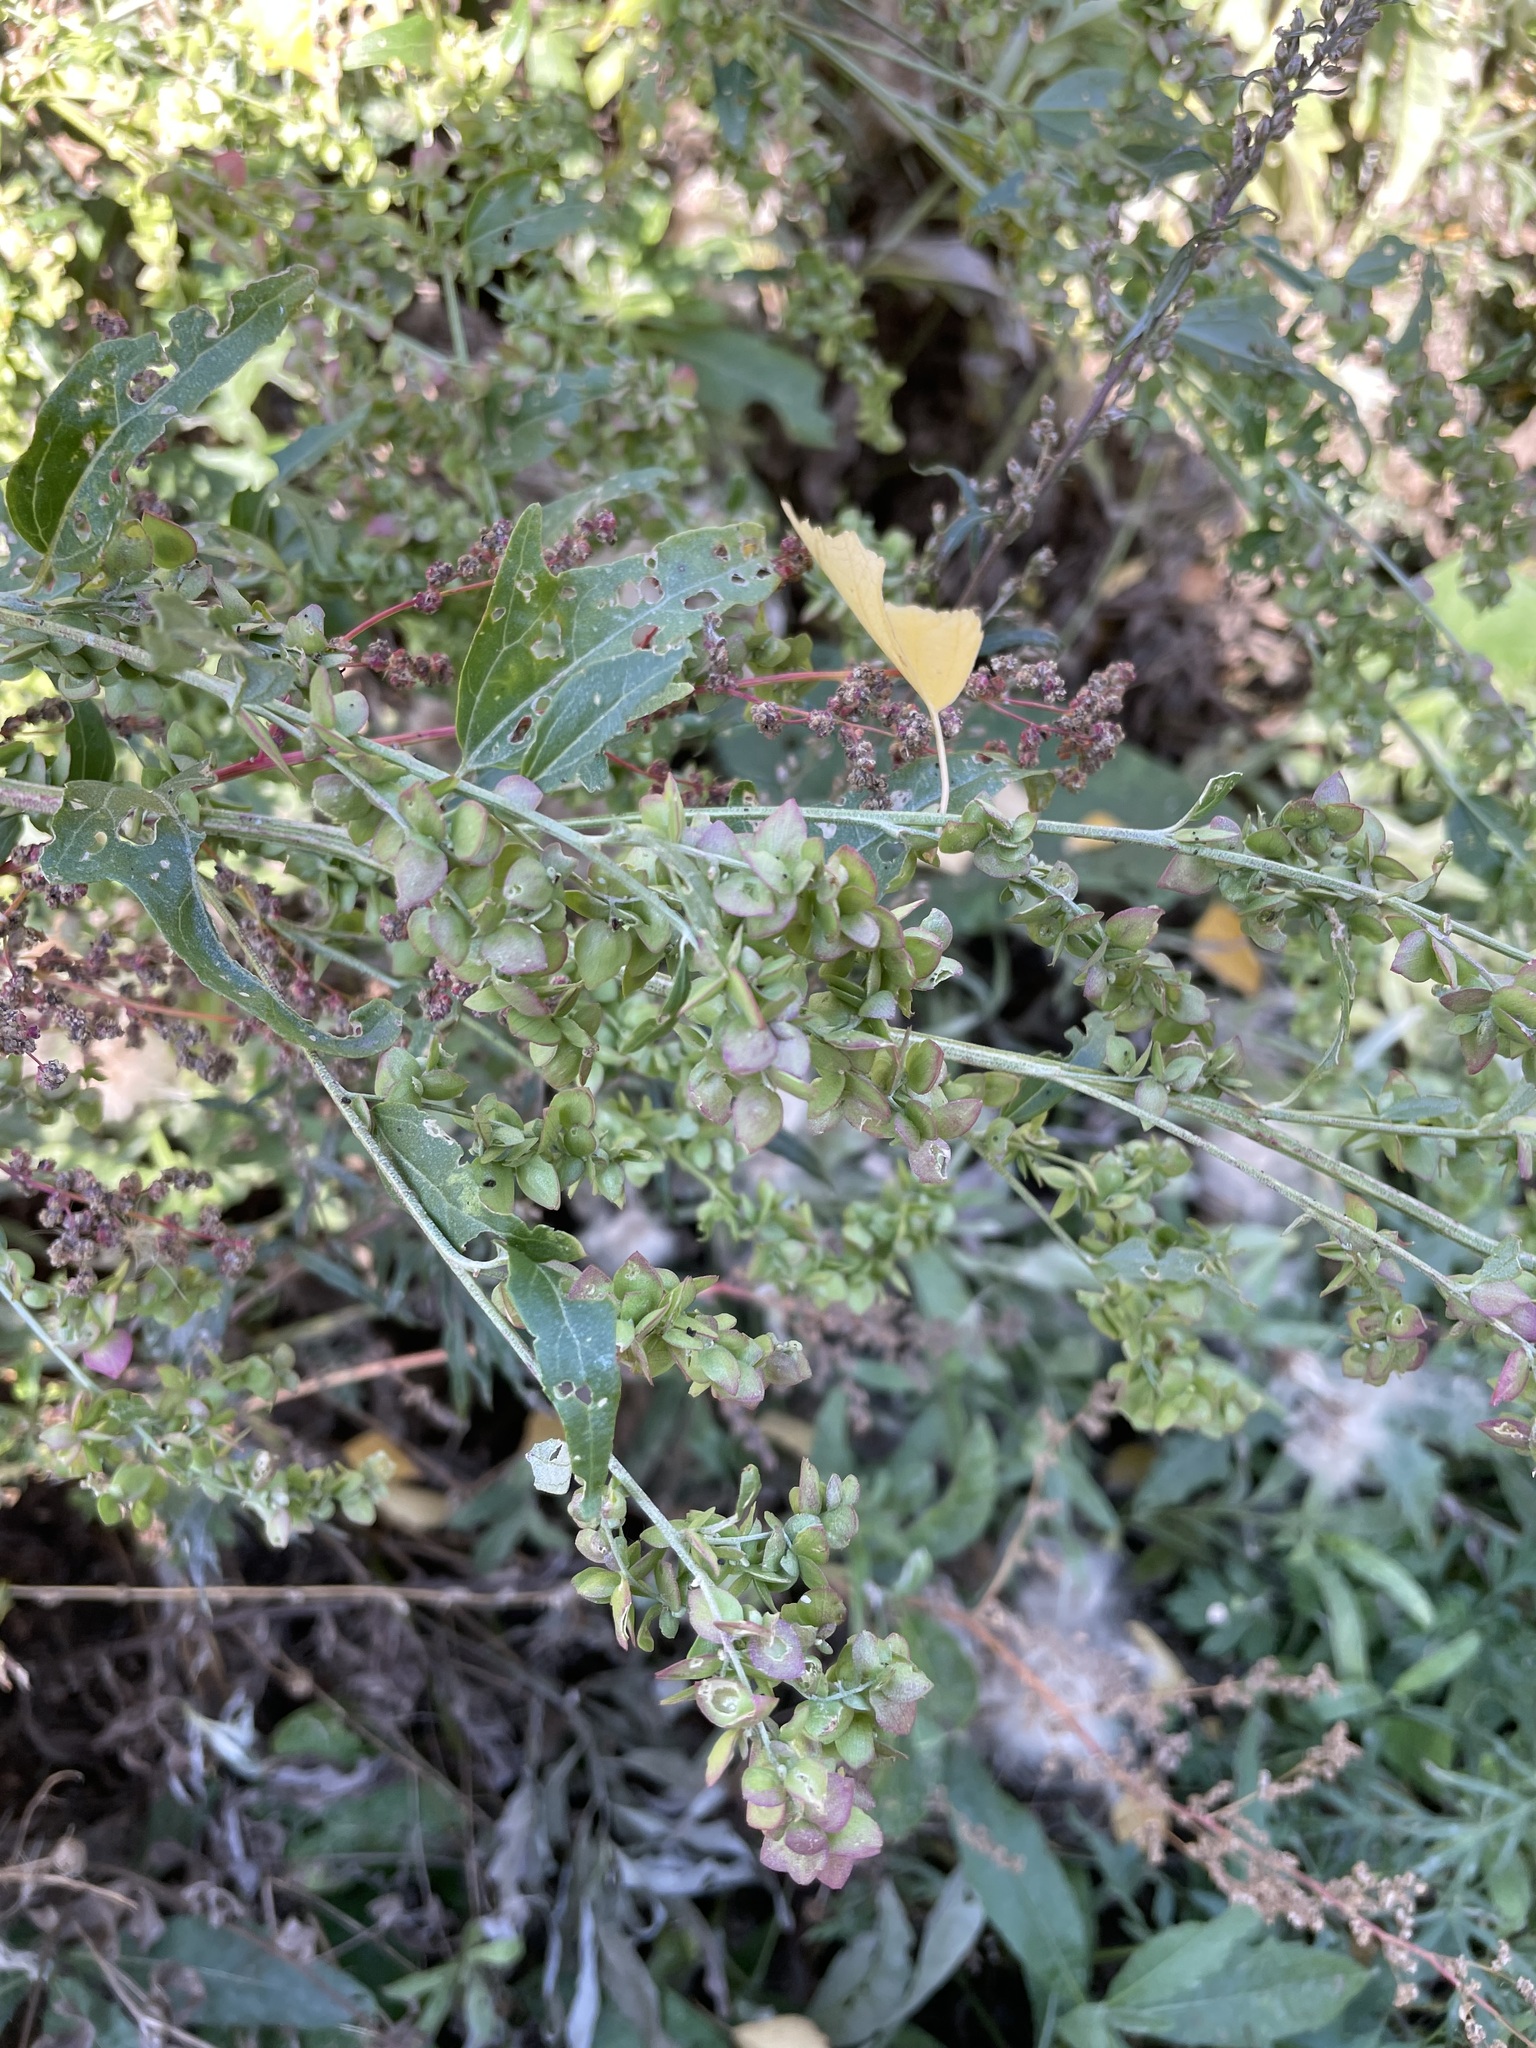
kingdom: Plantae
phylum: Tracheophyta
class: Magnoliopsida
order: Caryophyllales
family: Amaranthaceae
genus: Atriplex
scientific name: Atriplex sagittata
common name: Purple orache
